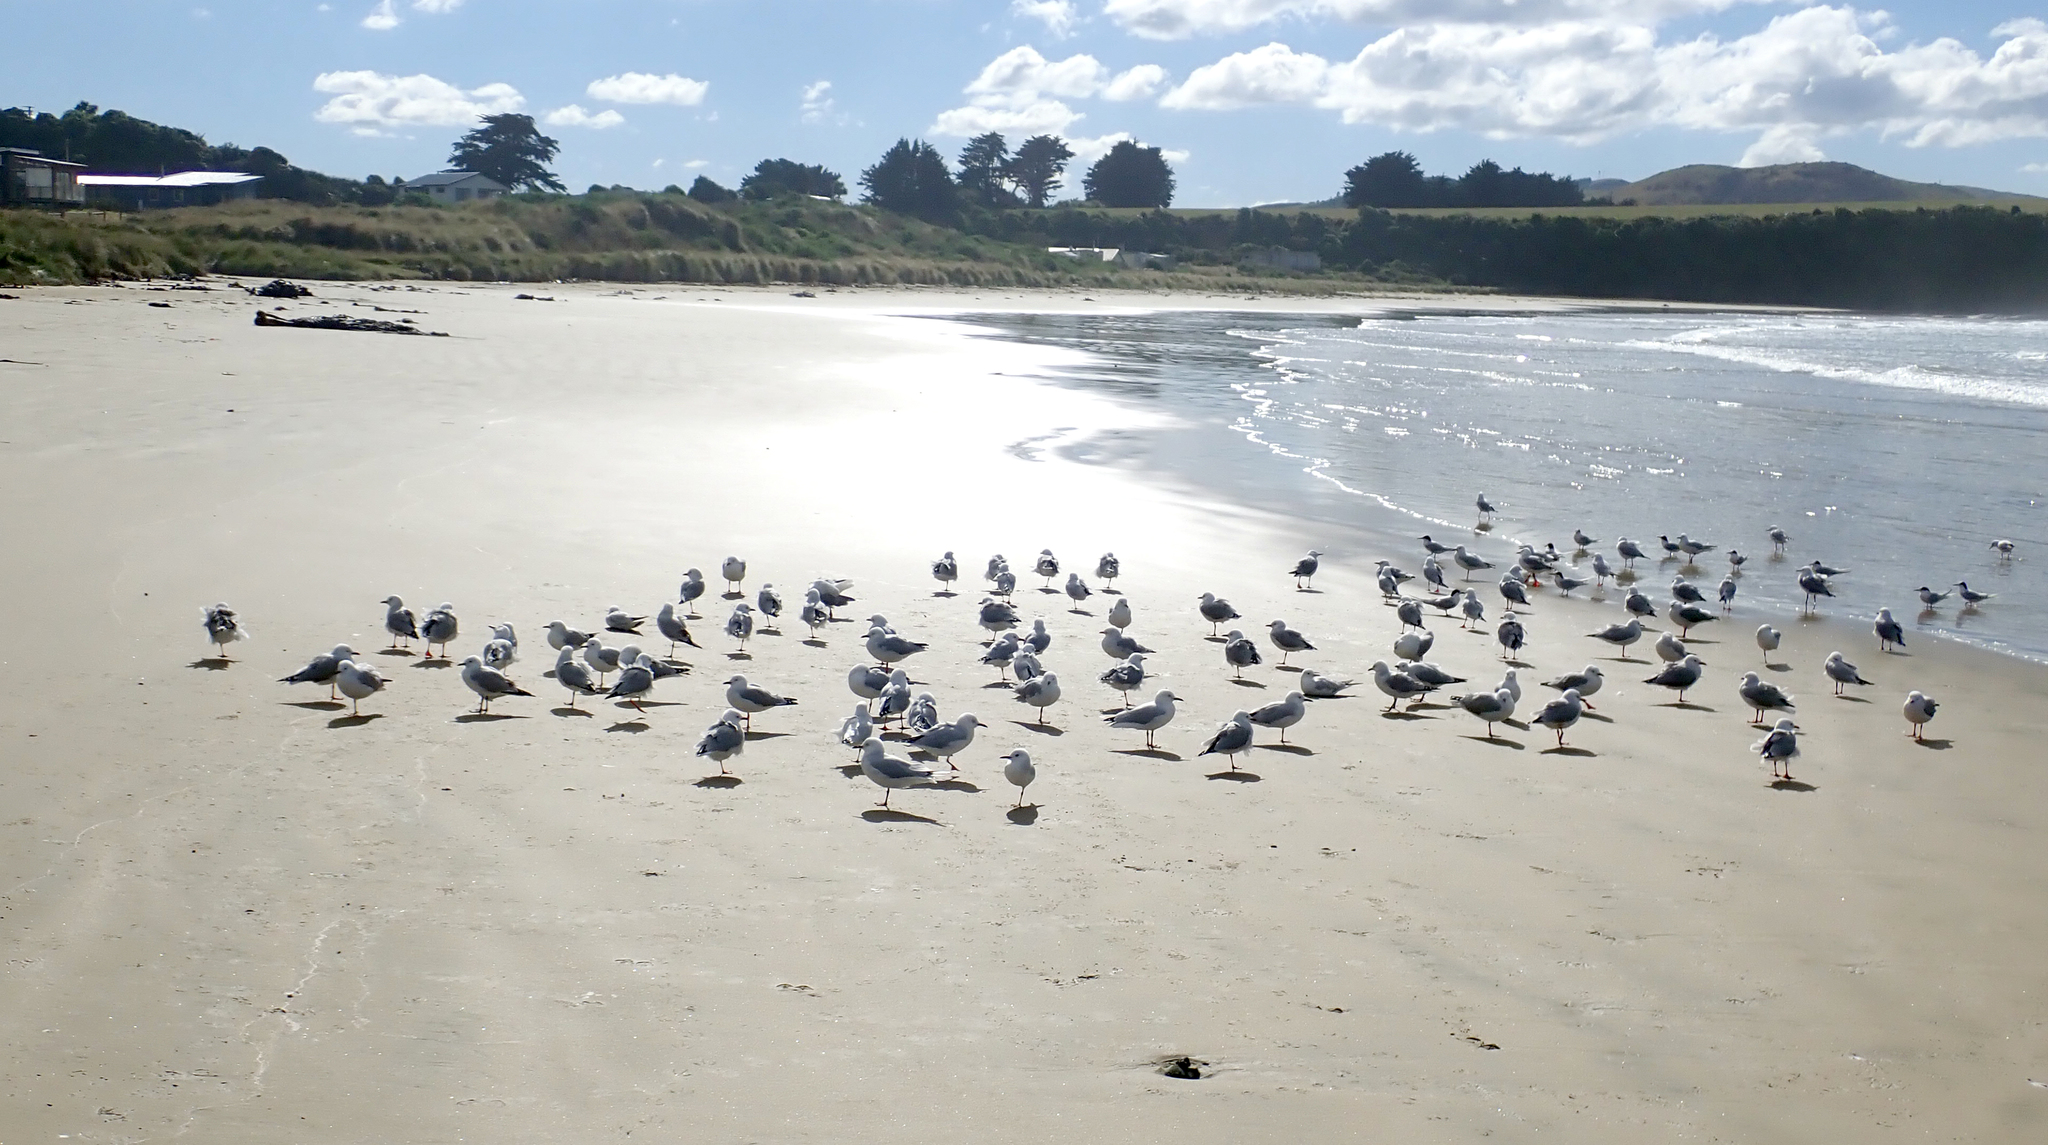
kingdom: Animalia
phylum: Chordata
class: Aves
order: Charadriiformes
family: Laridae
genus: Chroicocephalus
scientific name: Chroicocephalus novaehollandiae
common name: Silver gull
